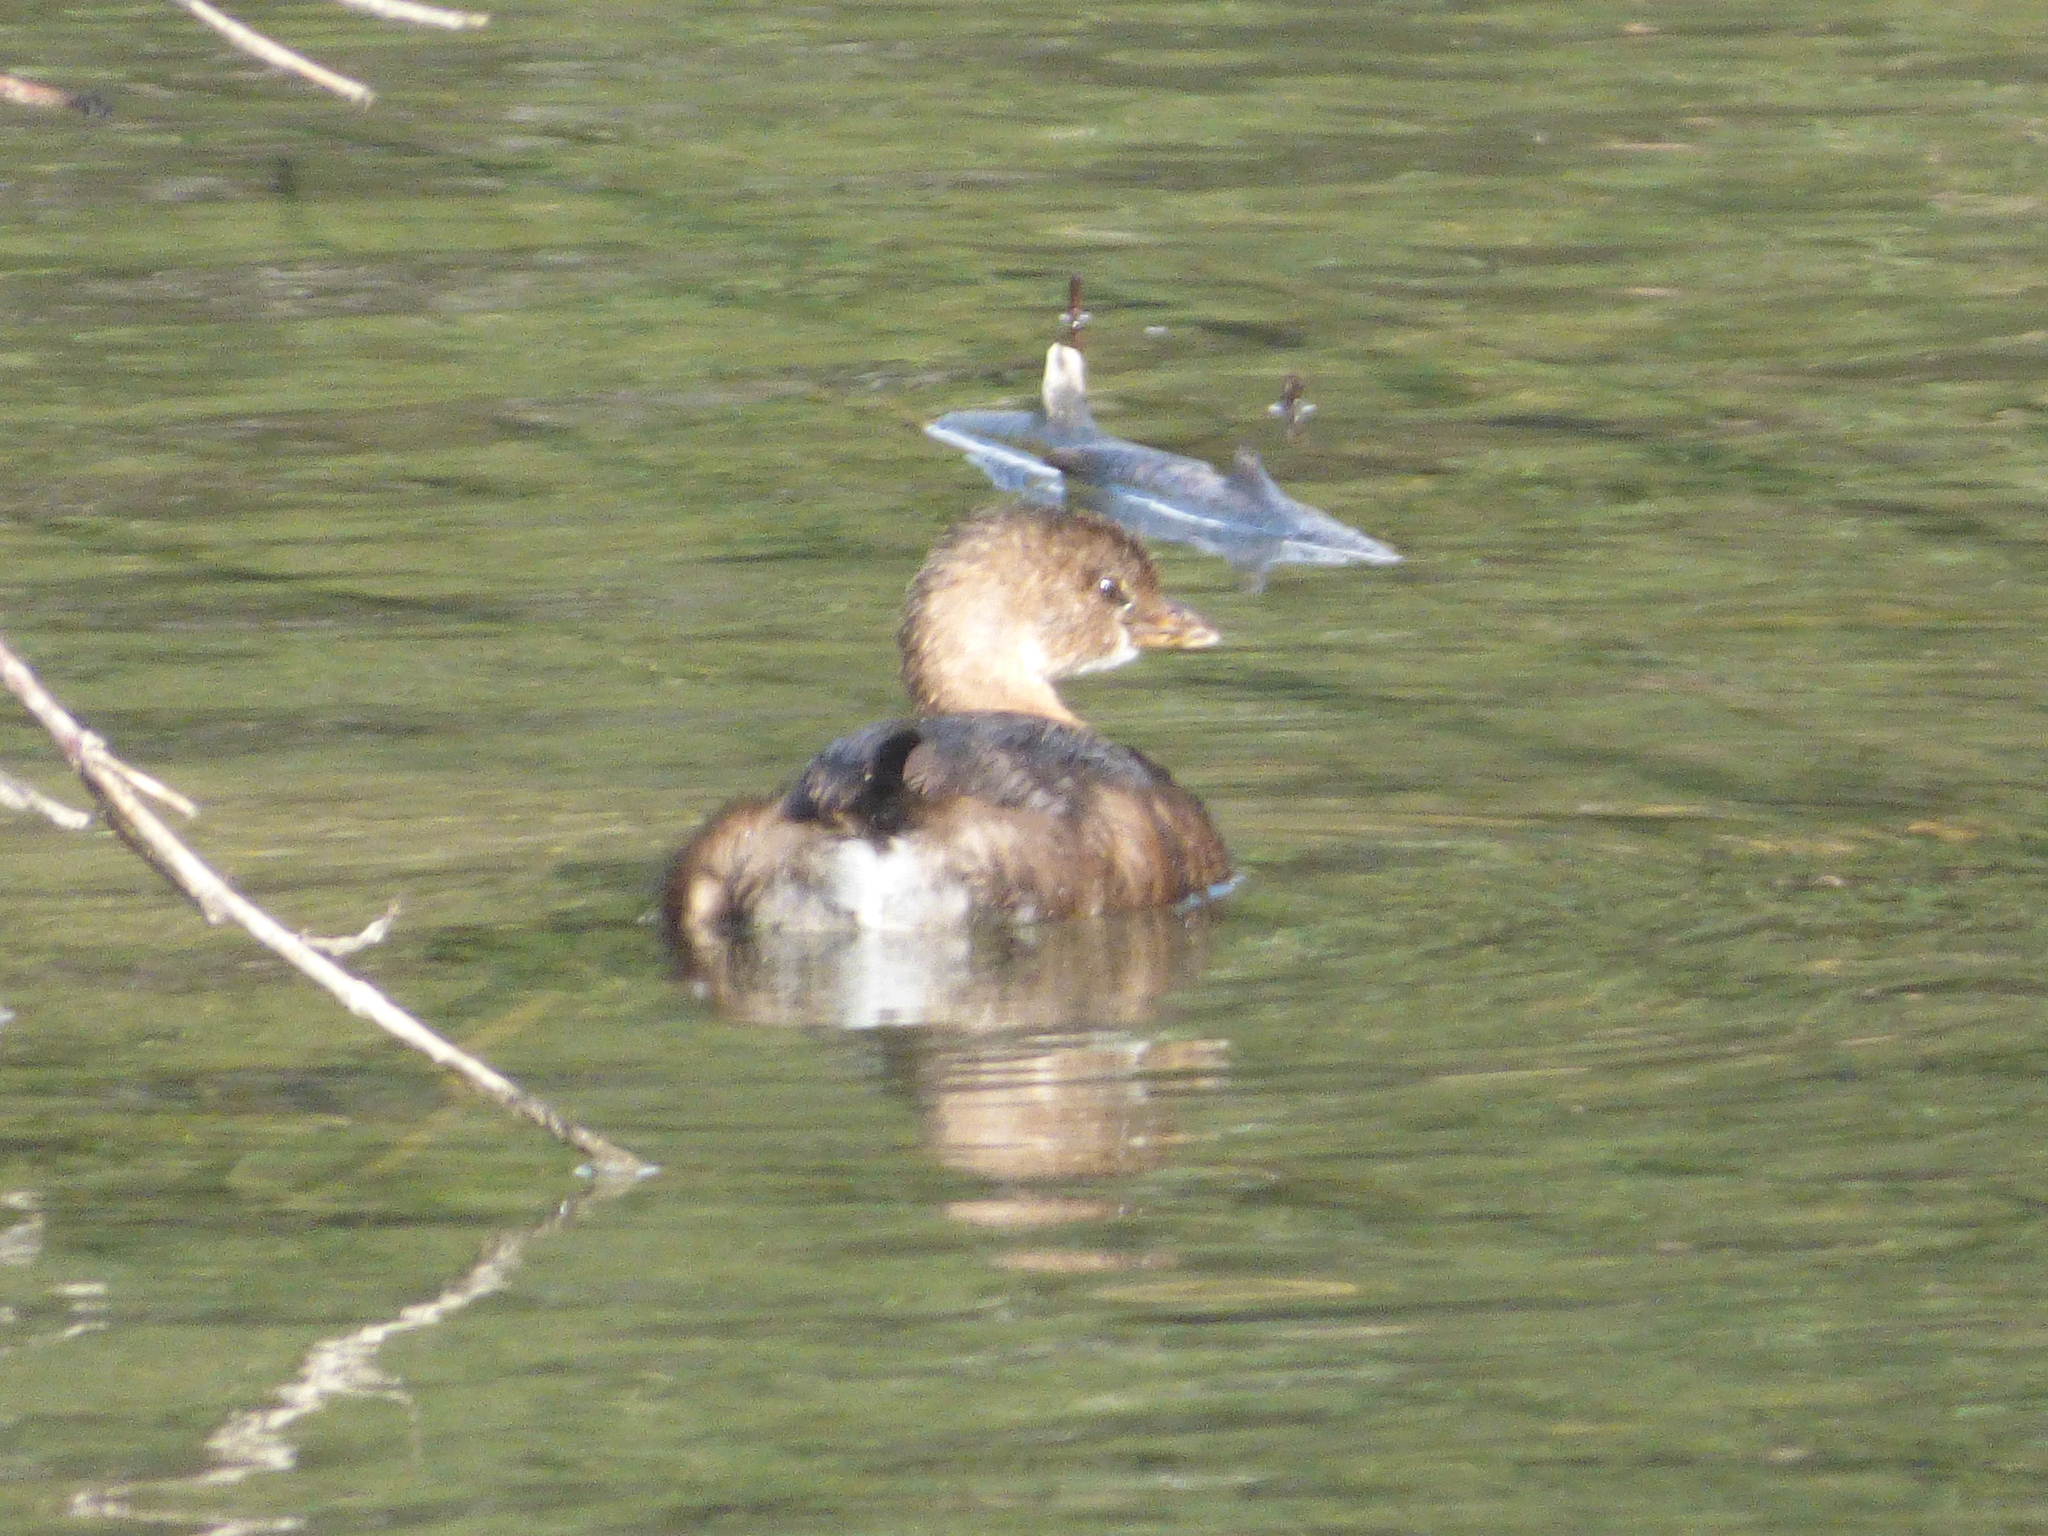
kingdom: Animalia
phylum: Chordata
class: Aves
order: Podicipediformes
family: Podicipedidae
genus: Podilymbus
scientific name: Podilymbus podiceps
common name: Pied-billed grebe
